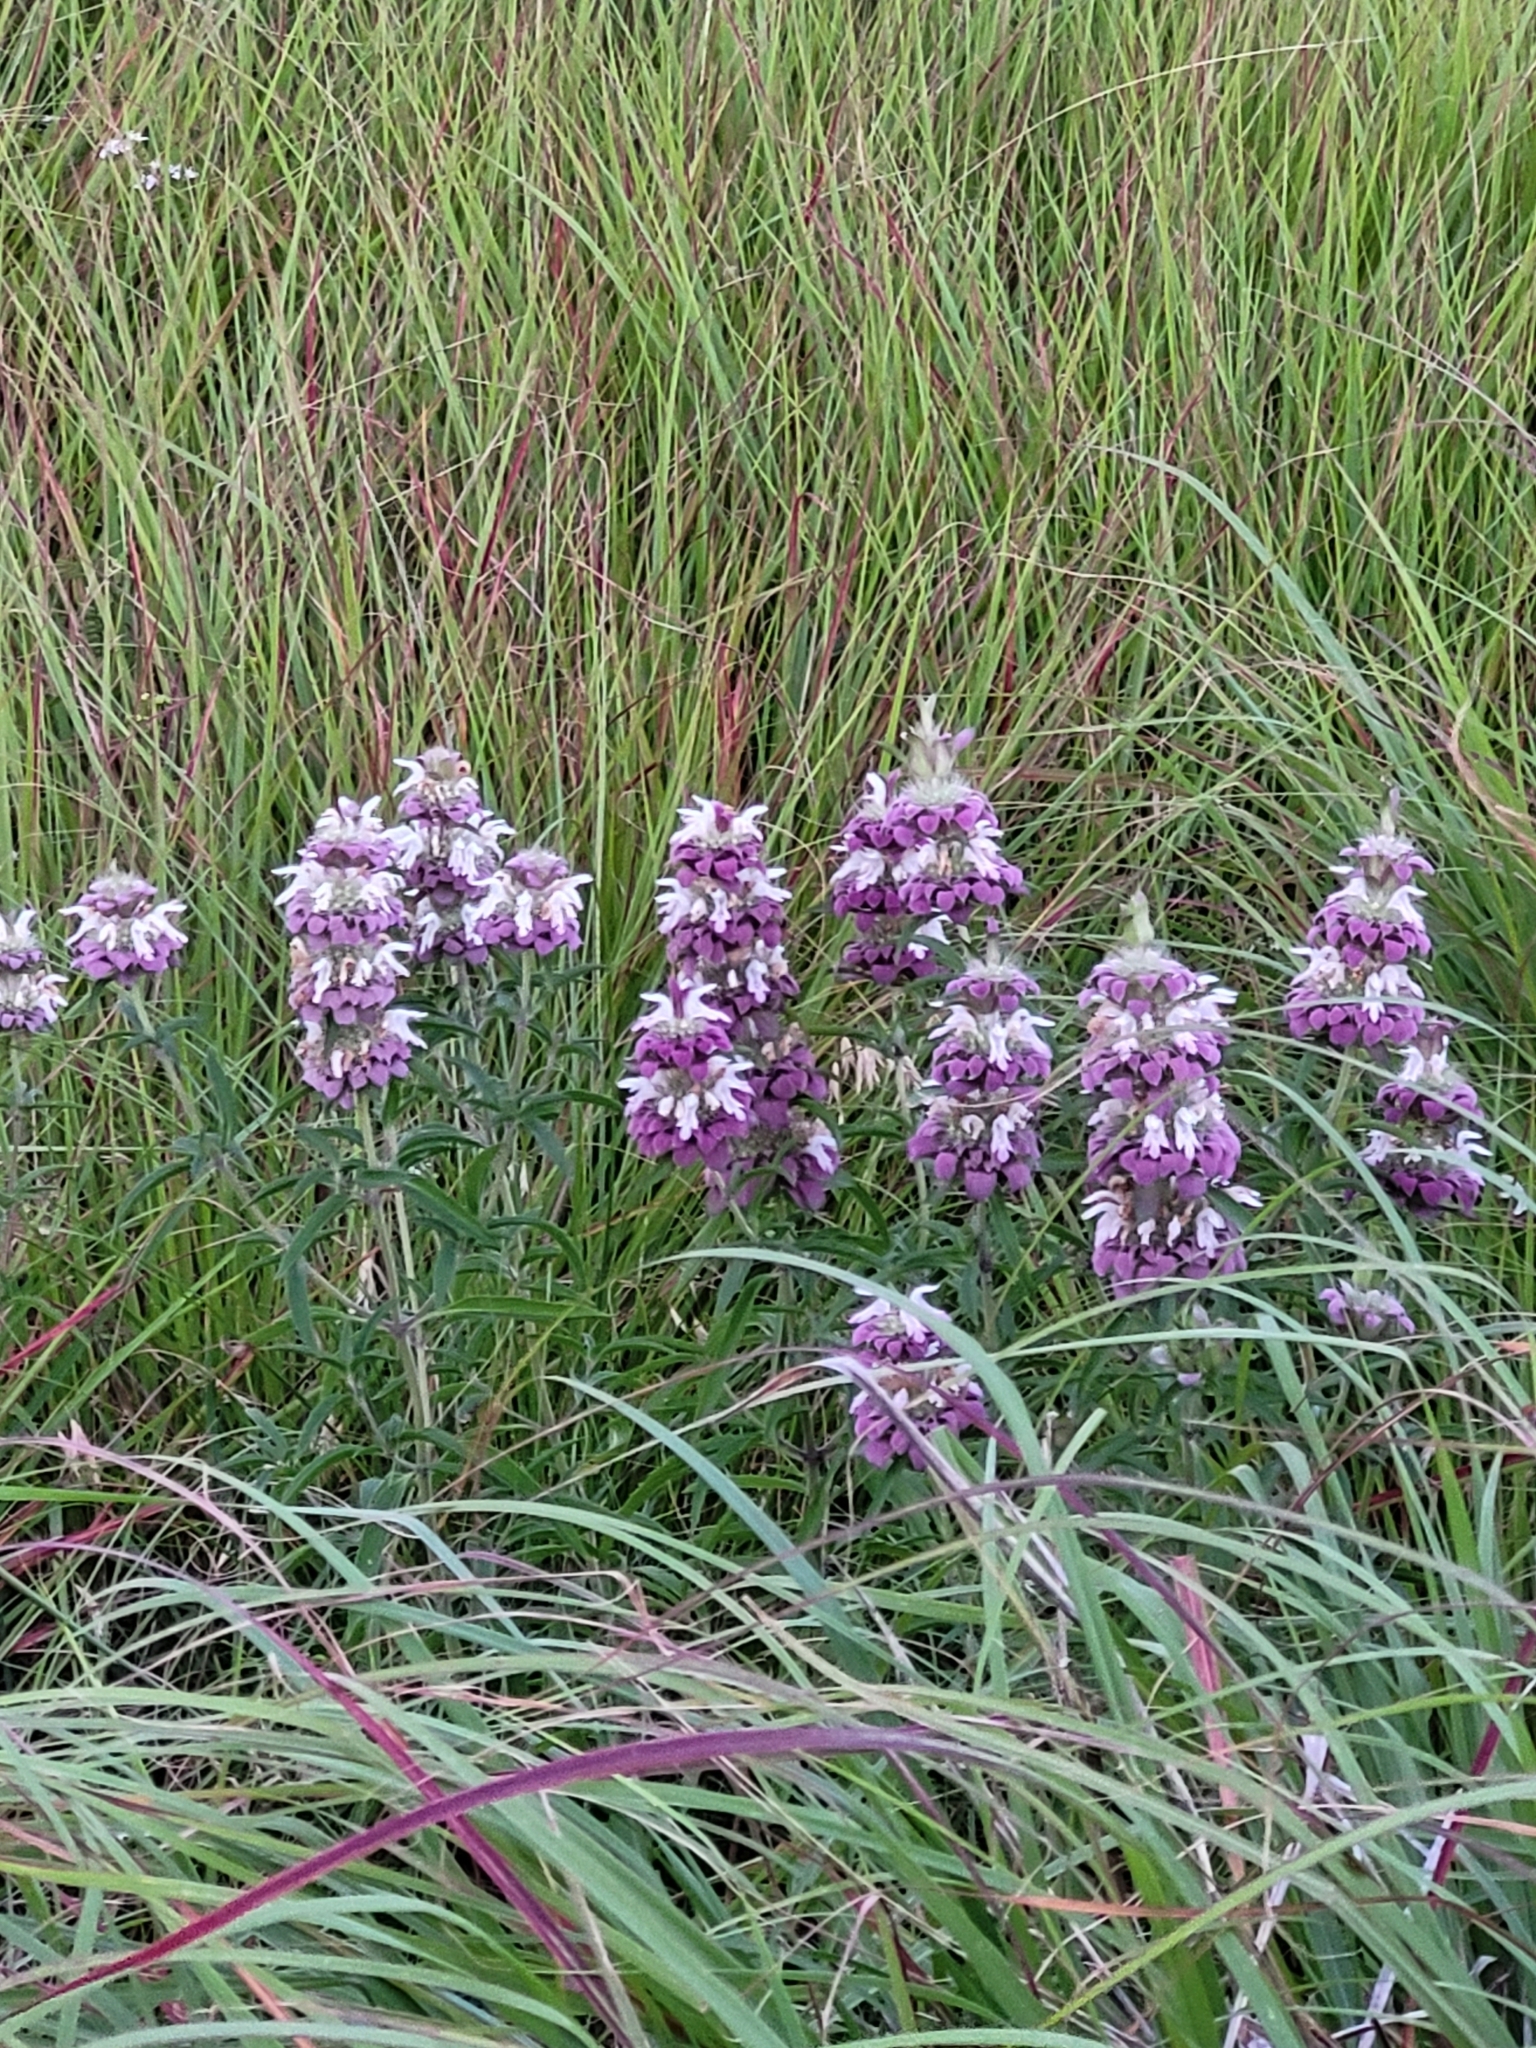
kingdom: Plantae
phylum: Tracheophyta
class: Magnoliopsida
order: Lamiales
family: Lamiaceae
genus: Monarda
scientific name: Monarda citriodora
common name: Lemon beebalm
